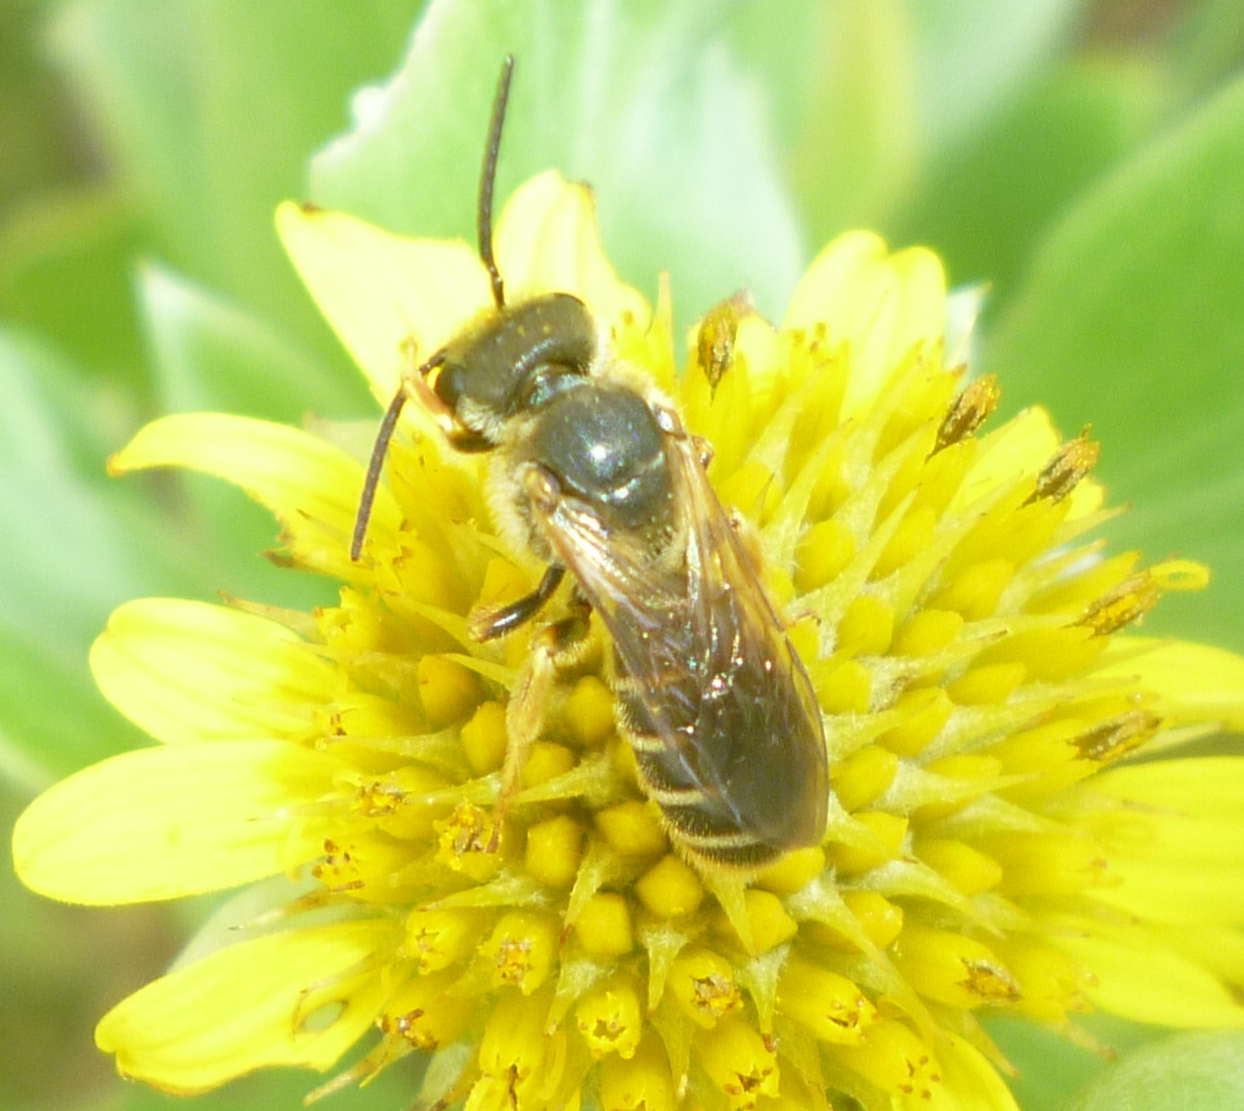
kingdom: Animalia
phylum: Arthropoda
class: Insecta
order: Hymenoptera
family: Halictidae
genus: Halictus
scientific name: Halictus poeyi
